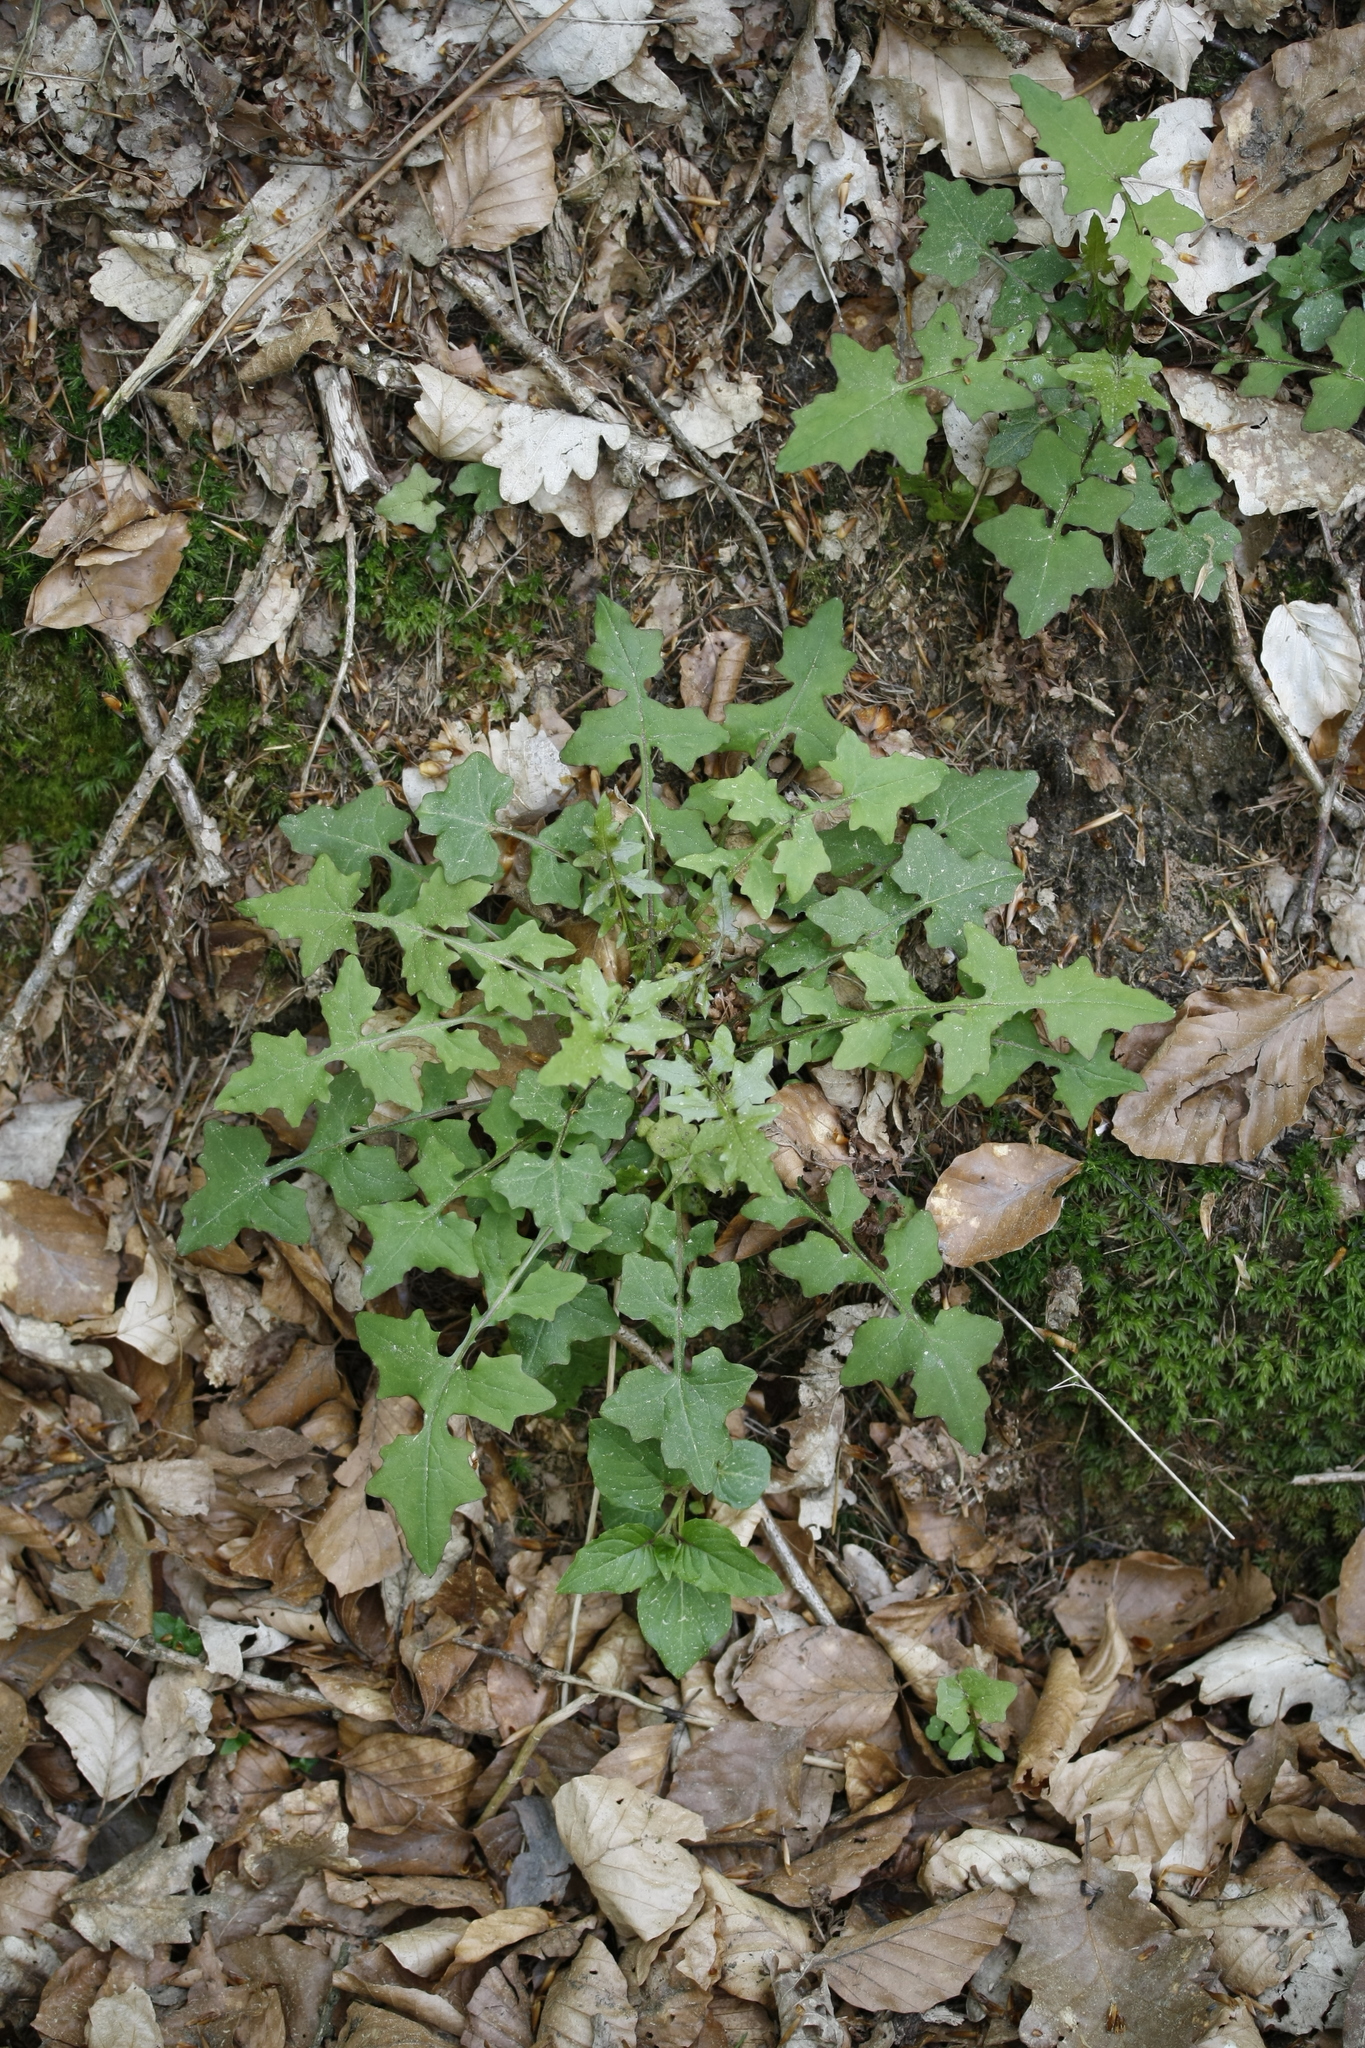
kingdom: Plantae
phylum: Tracheophyta
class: Magnoliopsida
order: Asterales
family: Asteraceae
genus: Mycelis
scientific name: Mycelis muralis
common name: Wall lettuce
